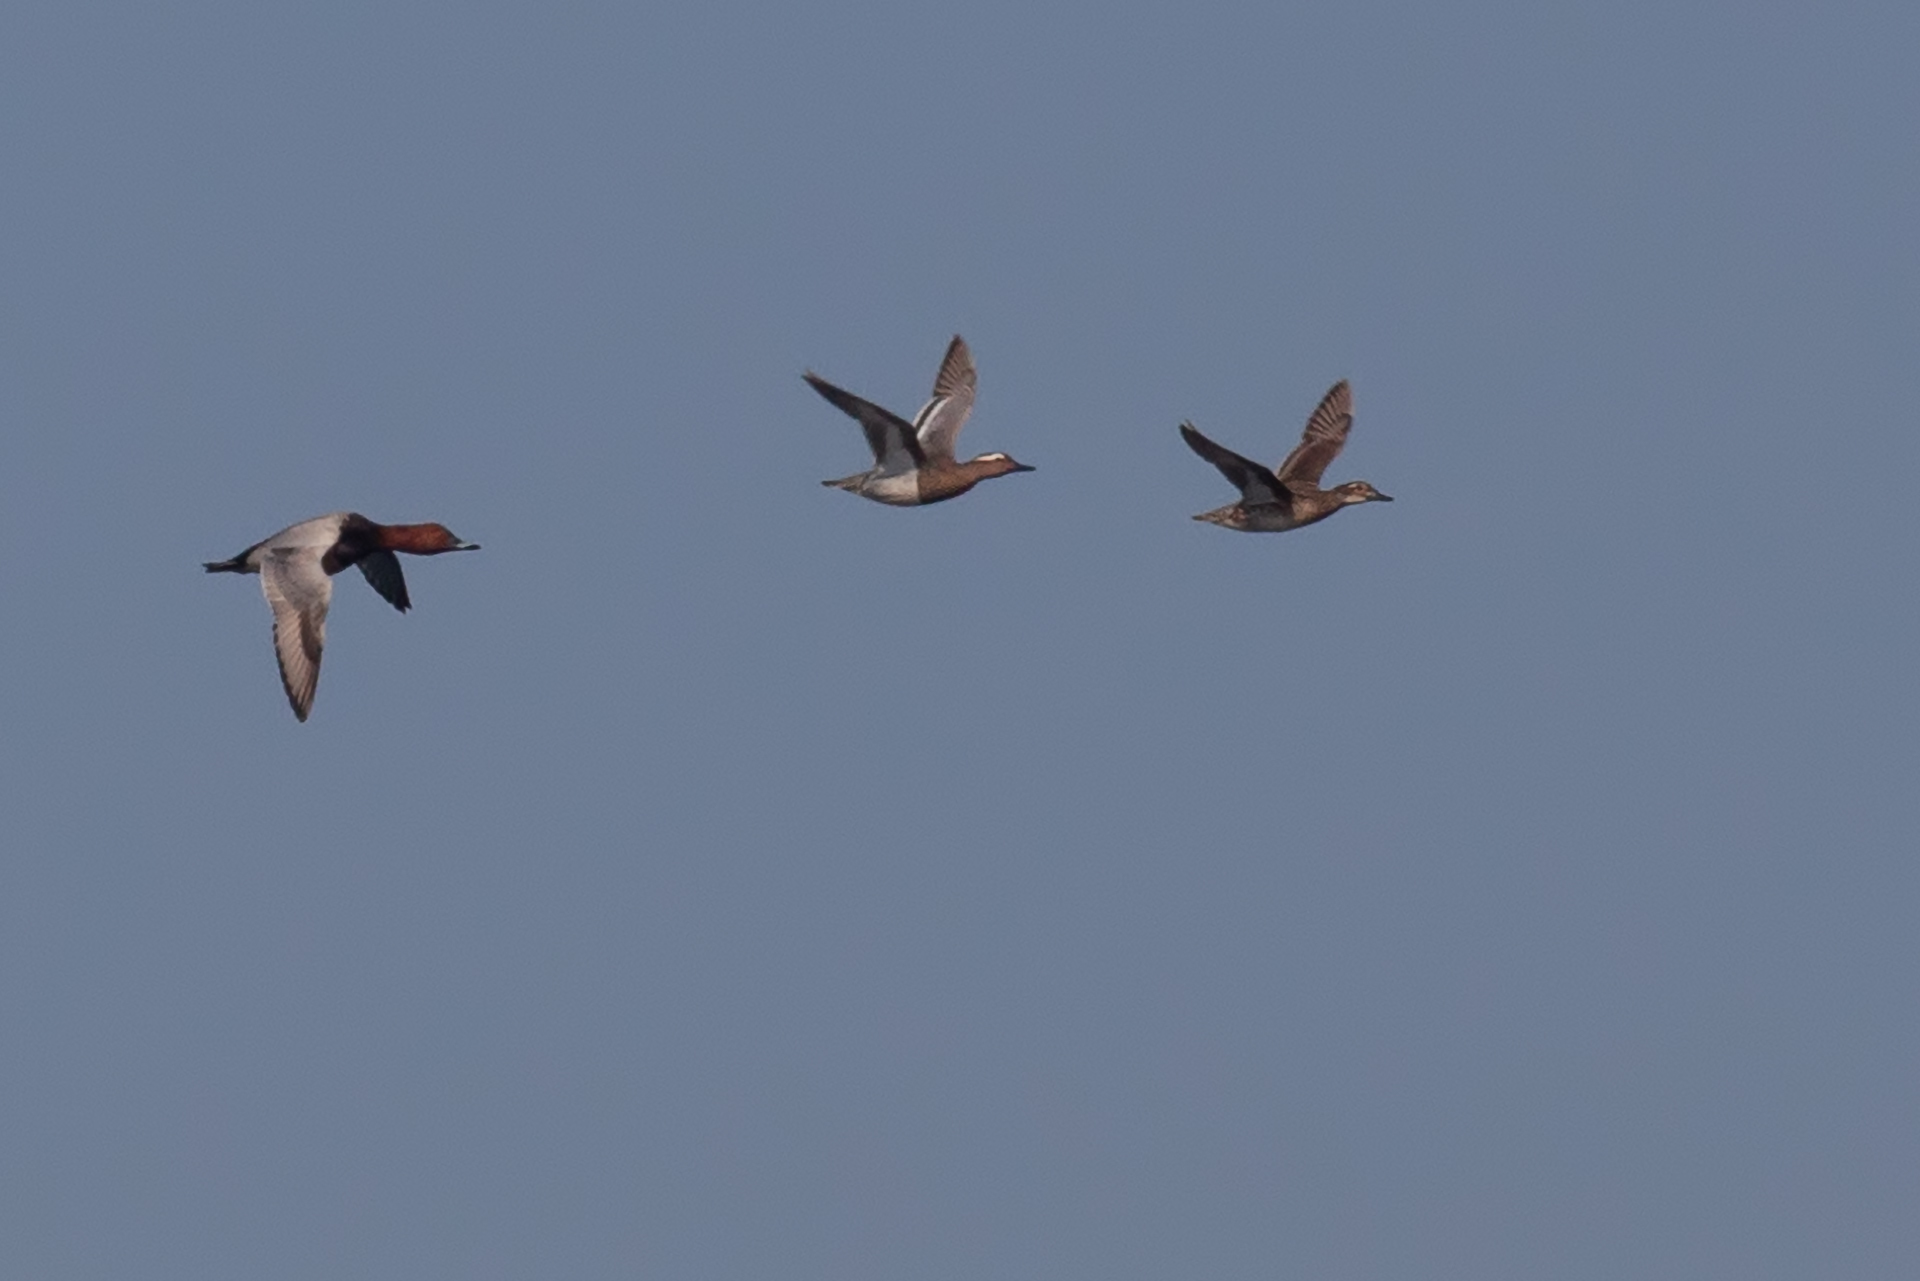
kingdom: Animalia
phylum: Chordata
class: Aves
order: Anseriformes
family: Anatidae
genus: Aythya
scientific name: Aythya ferina
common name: Common pochard
